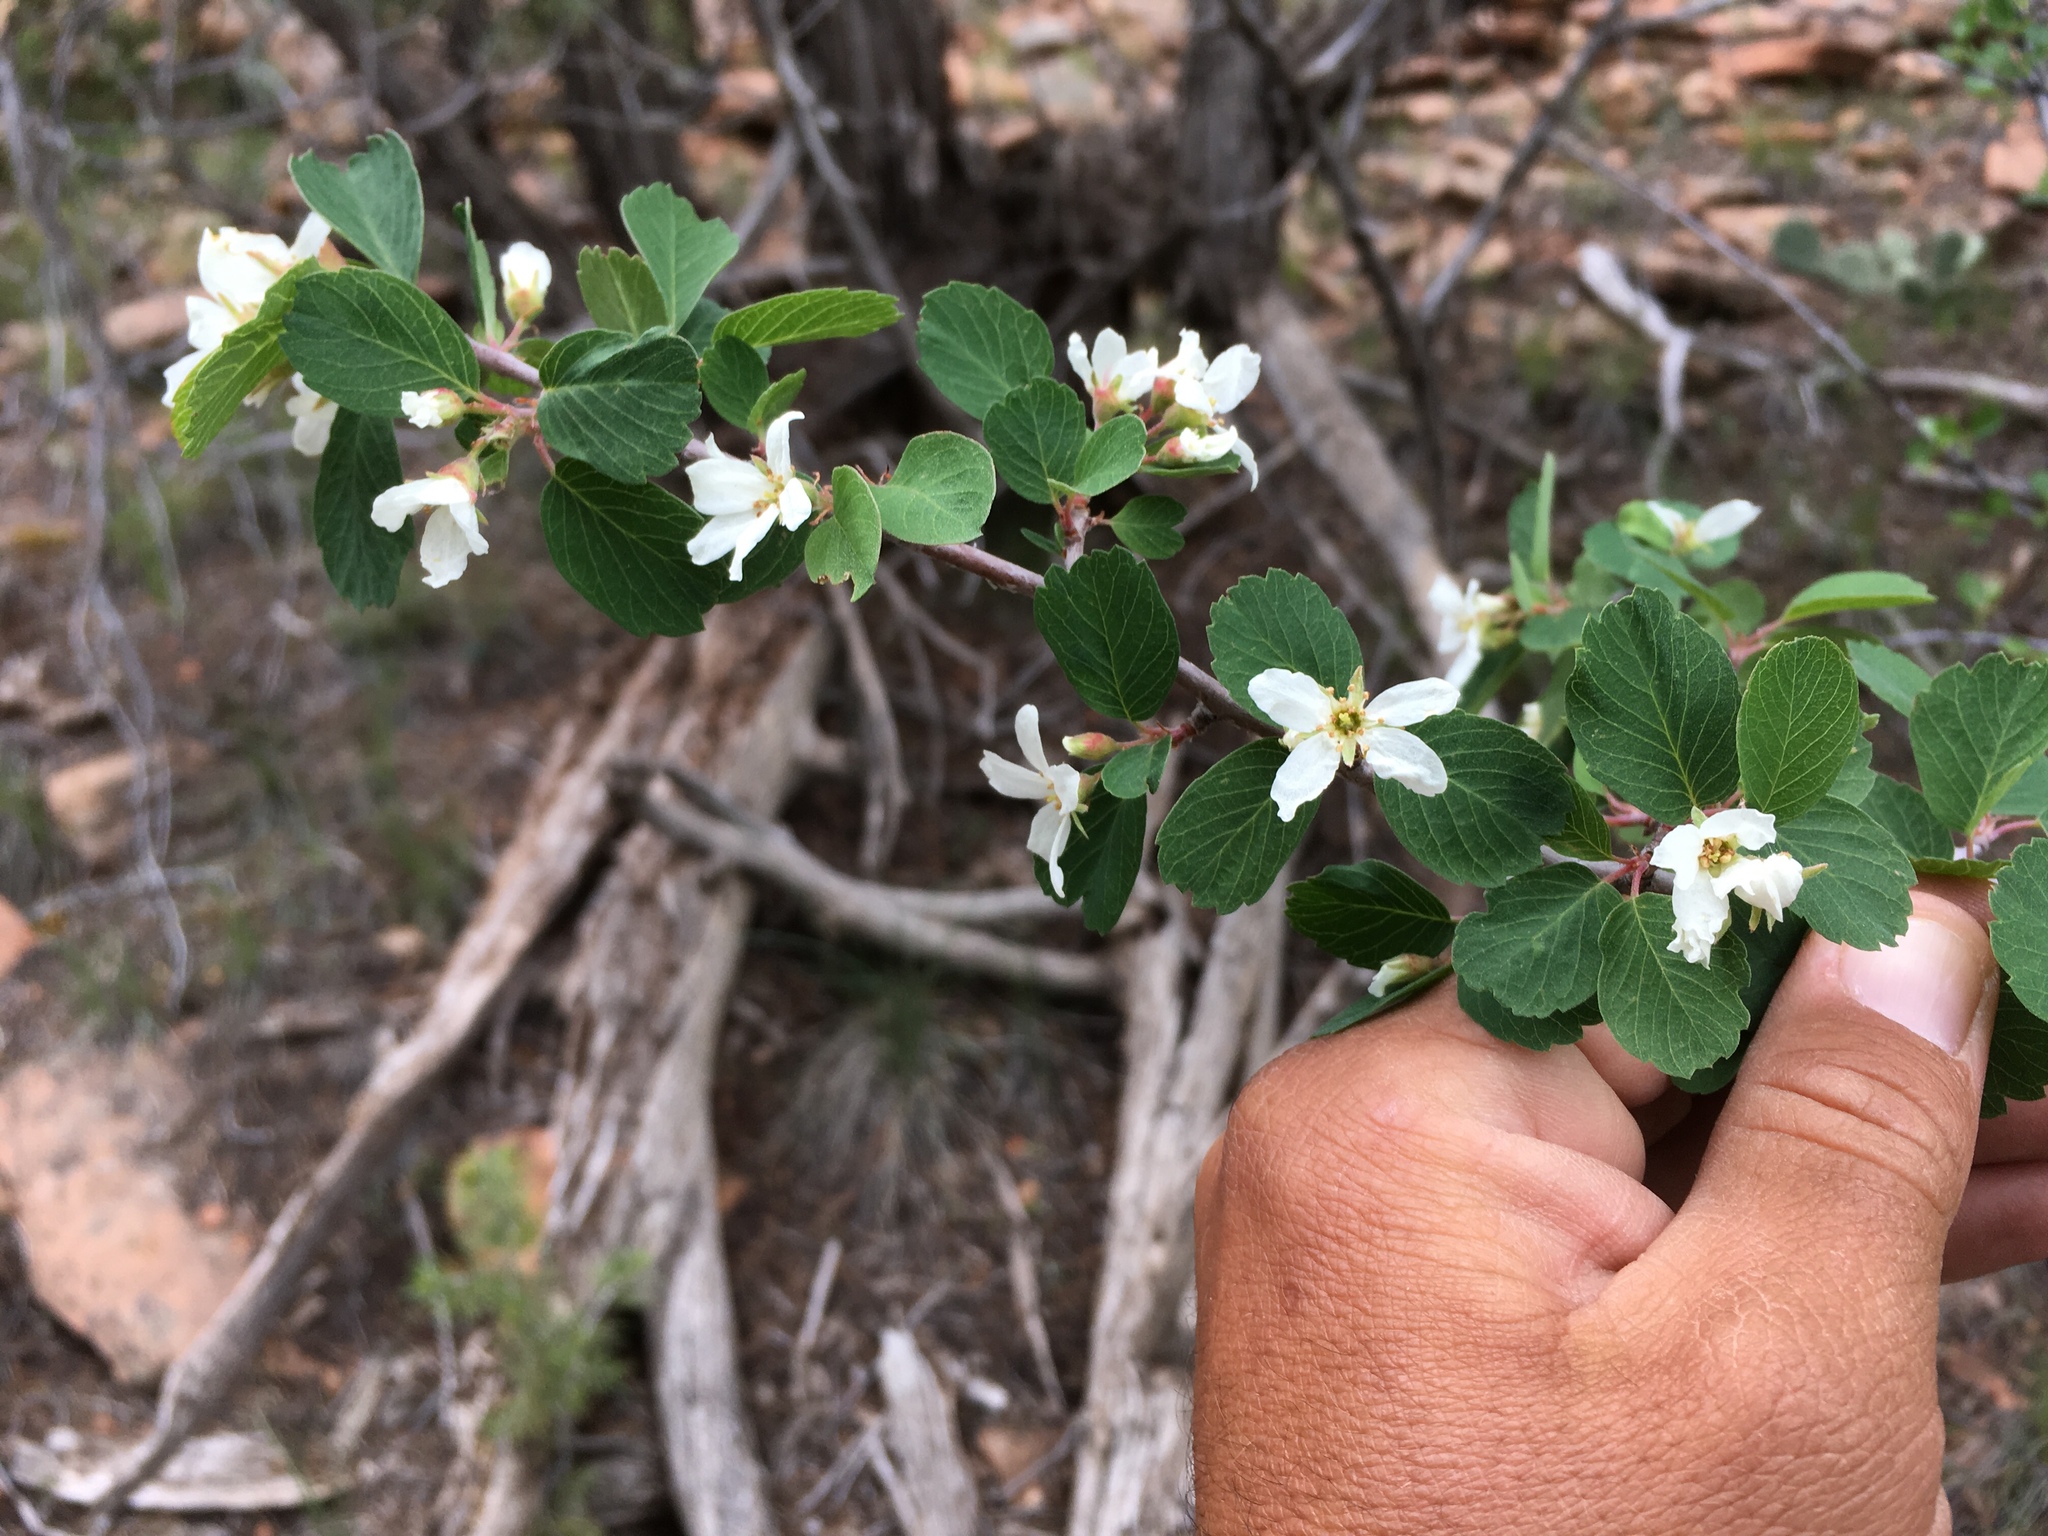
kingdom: Plantae
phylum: Tracheophyta
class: Magnoliopsida
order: Rosales
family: Rosaceae
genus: Amelanchier
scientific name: Amelanchier utahensis
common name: Utah serviceberry
